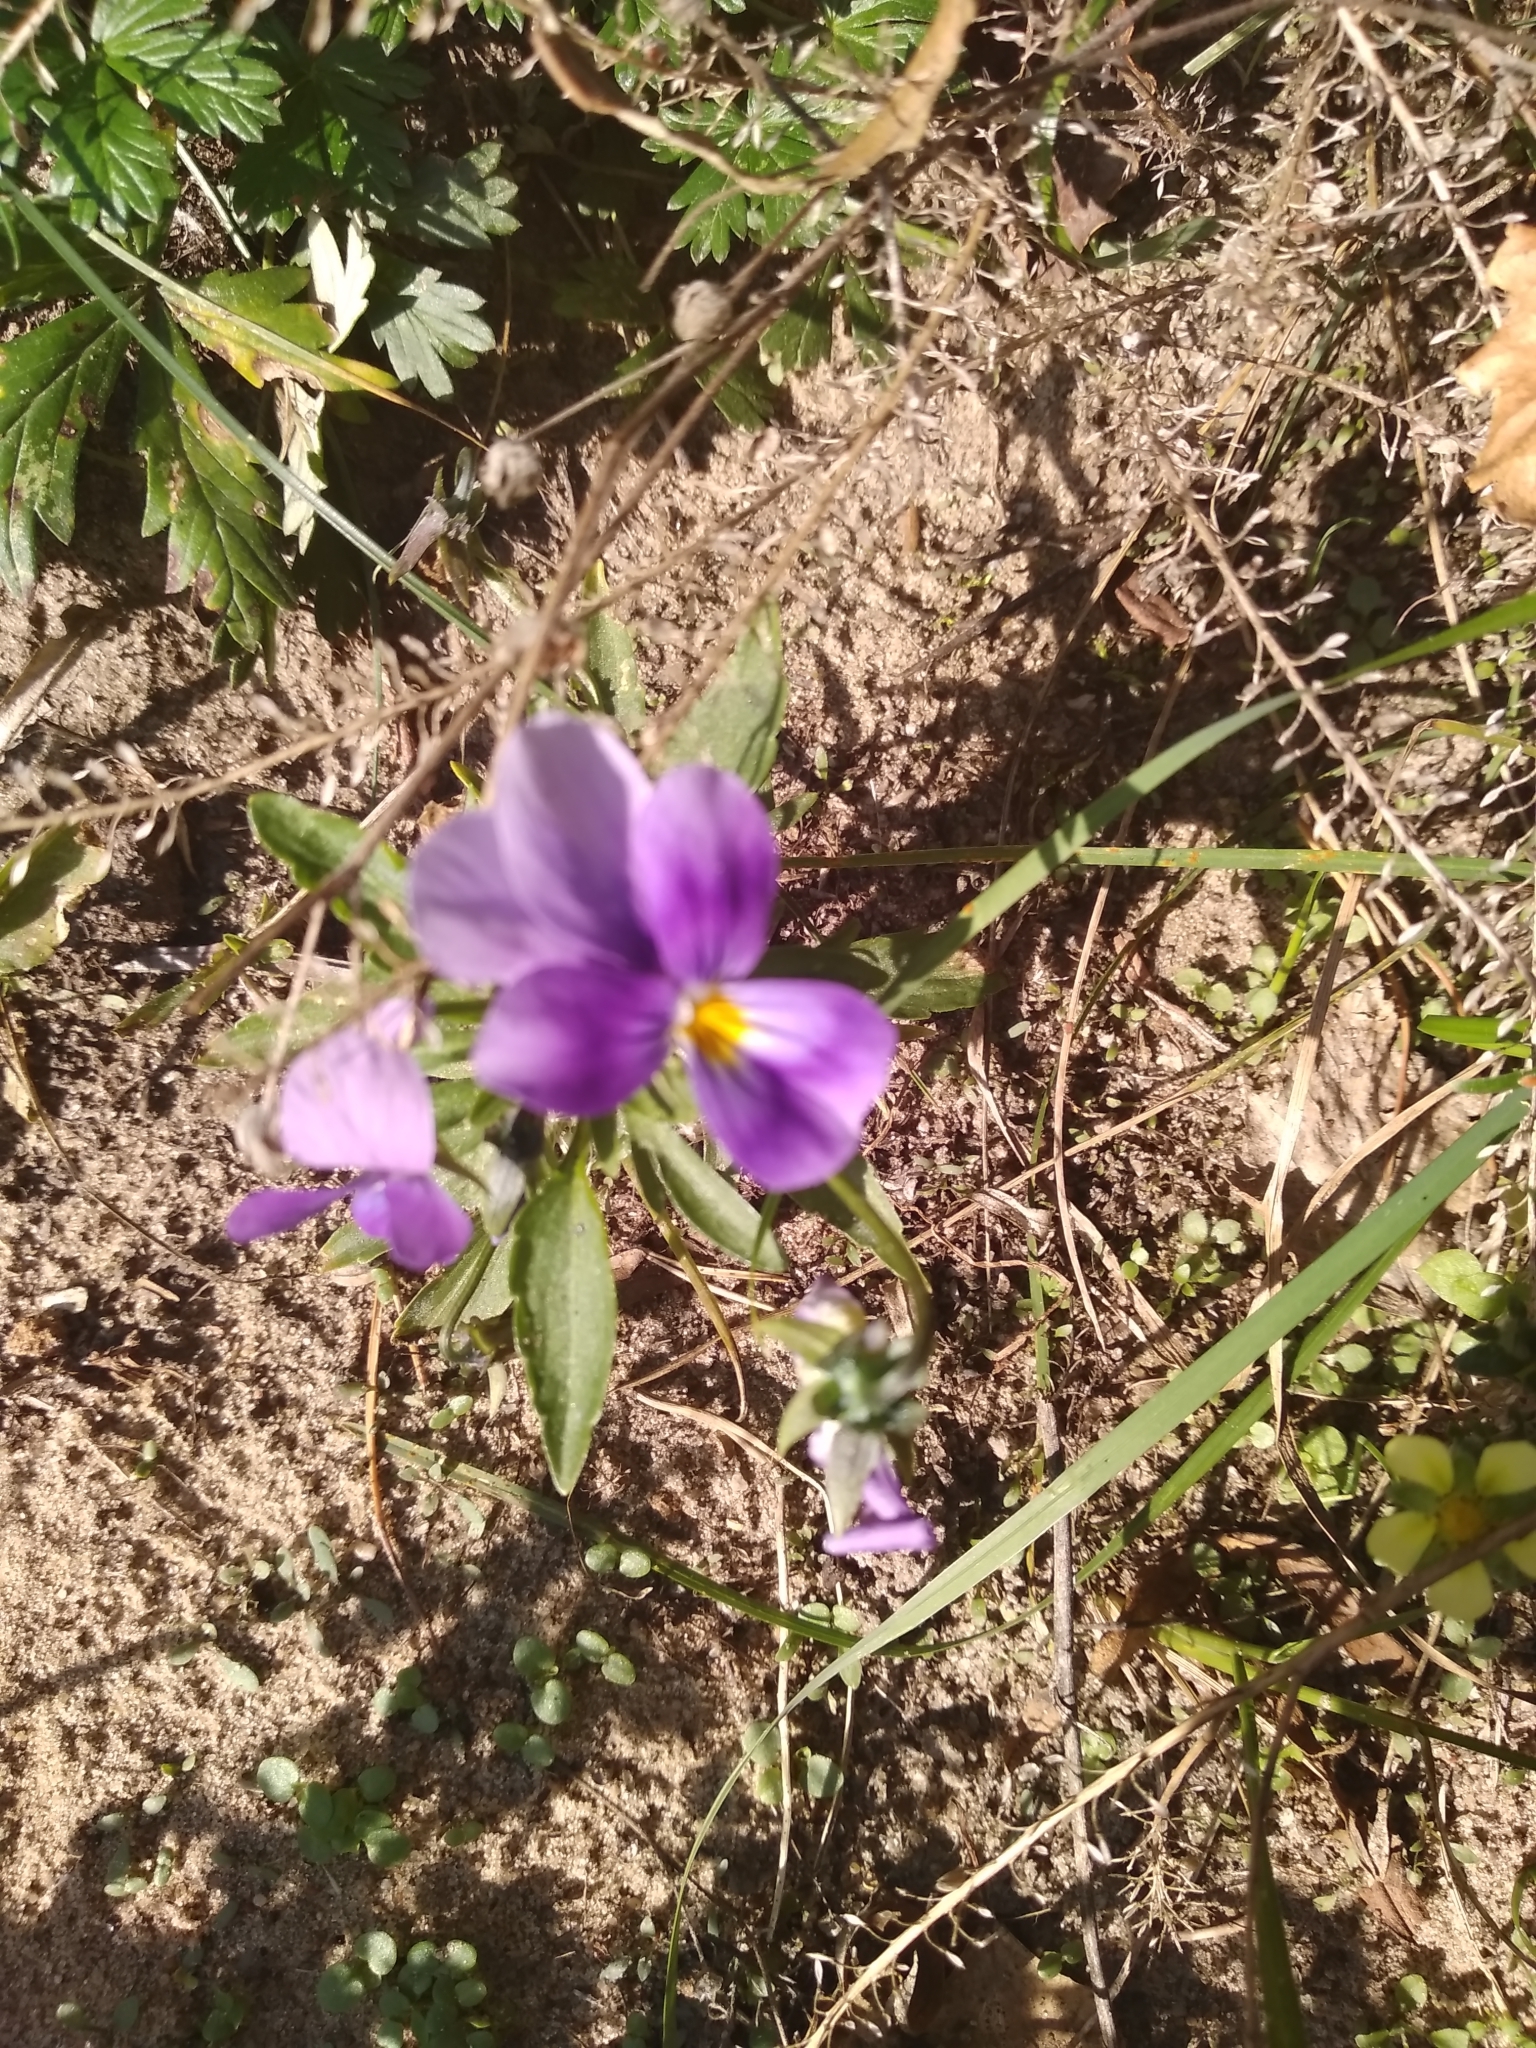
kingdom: Plantae
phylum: Tracheophyta
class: Magnoliopsida
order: Malpighiales
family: Violaceae
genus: Viola
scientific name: Viola tricolor
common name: Pansy
